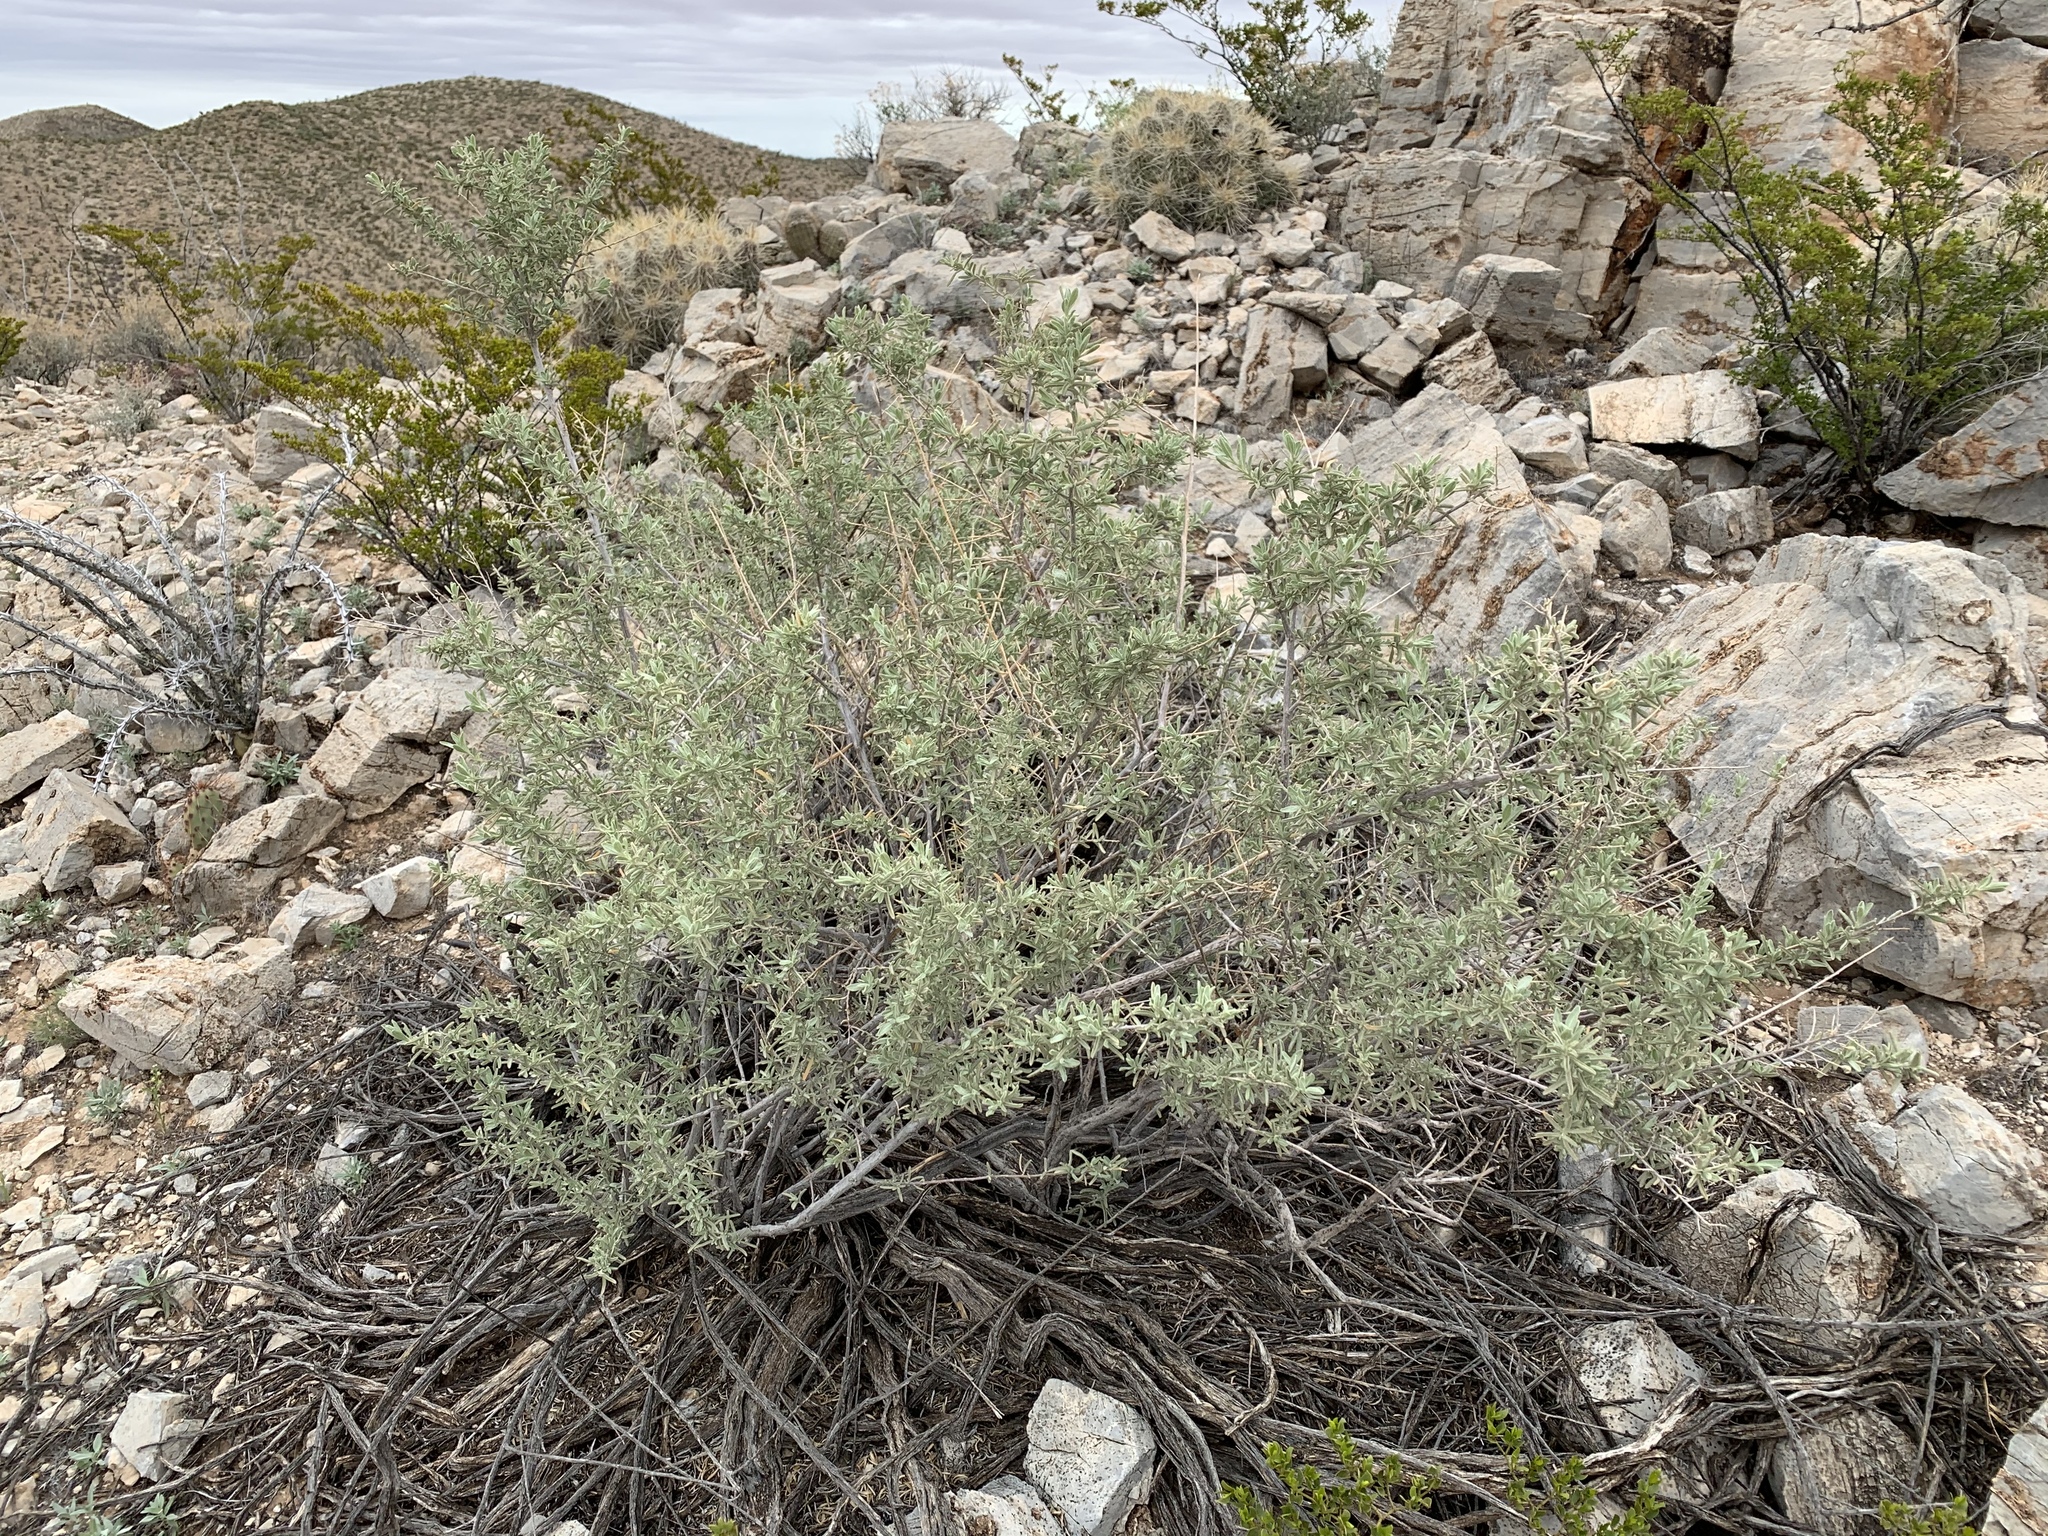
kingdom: Plantae
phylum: Tracheophyta
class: Magnoliopsida
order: Caryophyllales
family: Amaranthaceae
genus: Atriplex
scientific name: Atriplex canescens
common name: Four-wing saltbush
